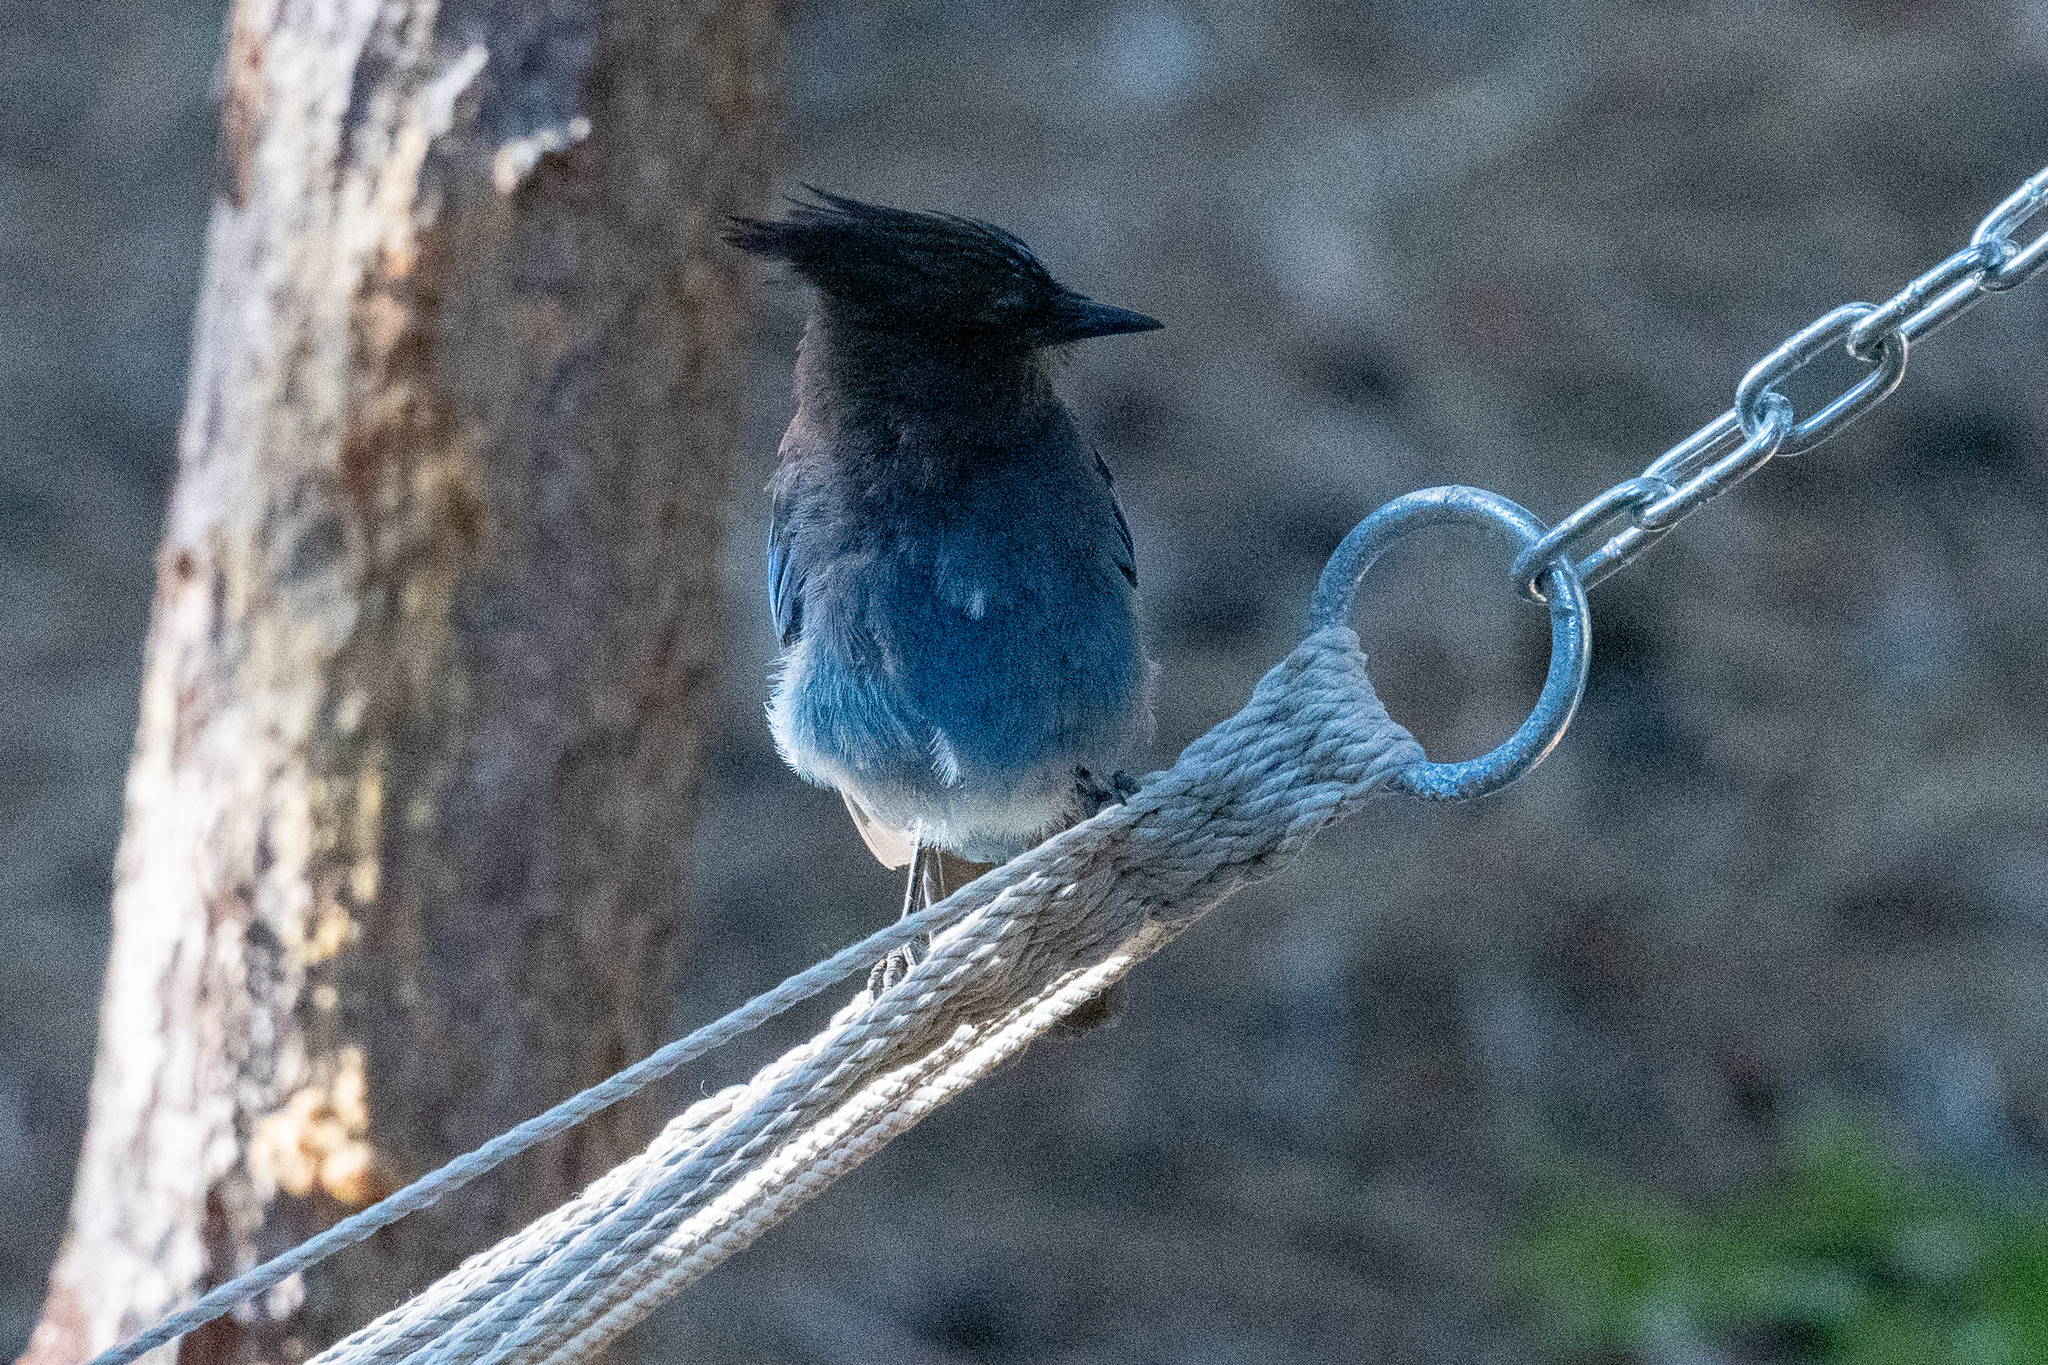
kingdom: Animalia
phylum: Chordata
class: Aves
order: Passeriformes
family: Corvidae
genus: Cyanocitta
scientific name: Cyanocitta stelleri
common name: Steller's jay
